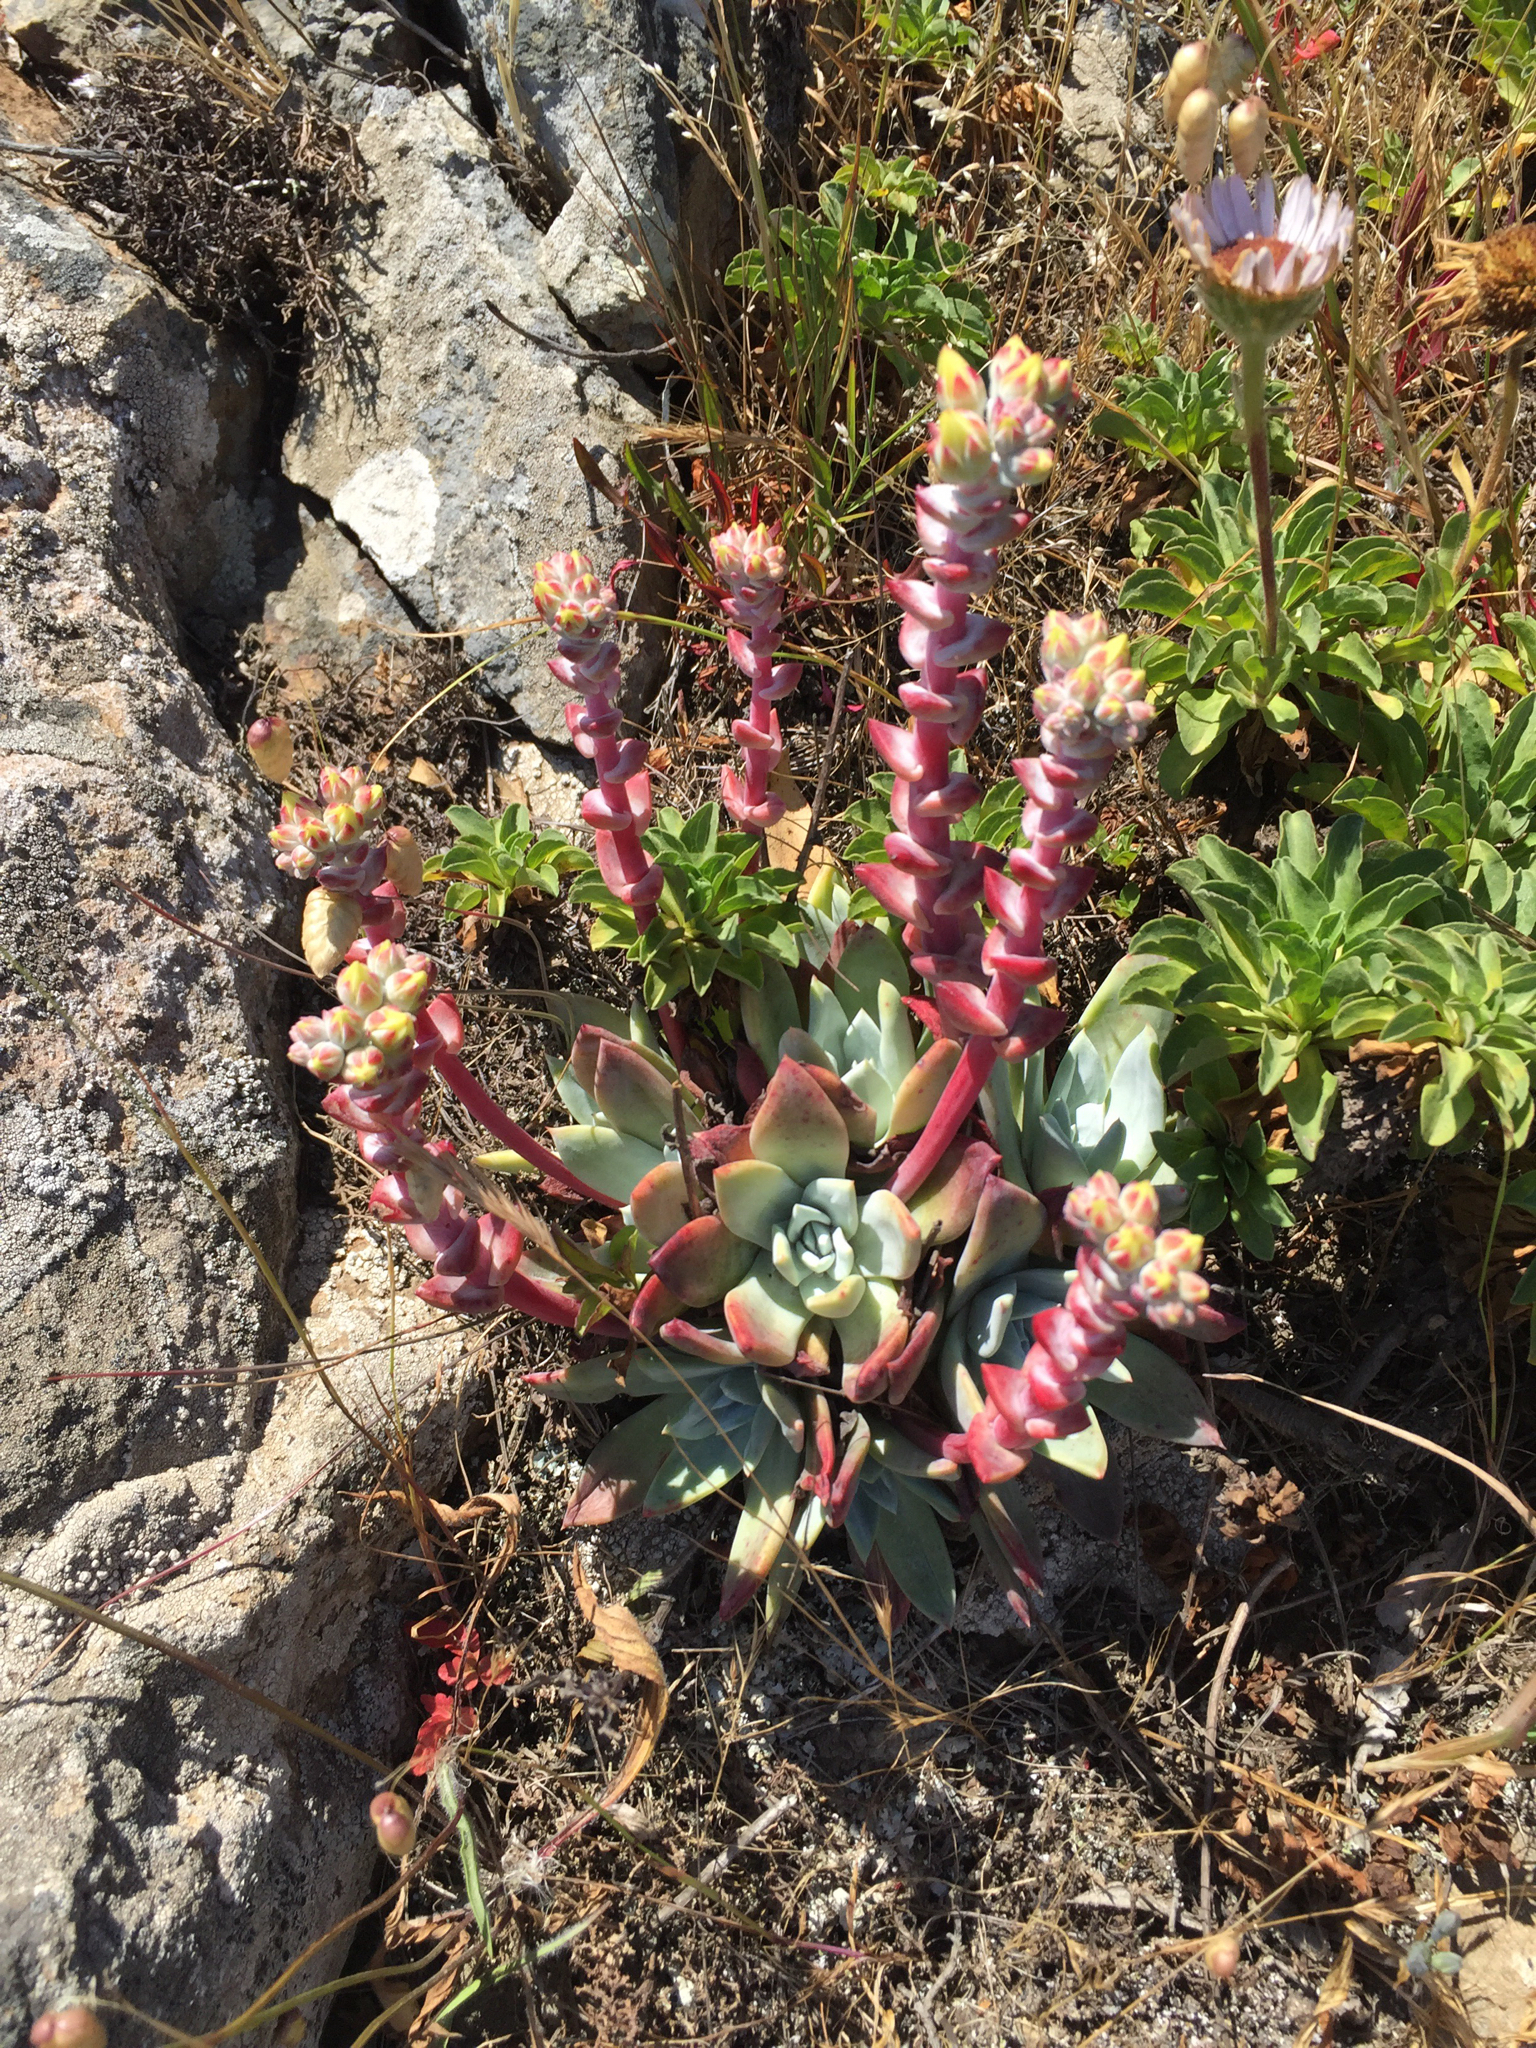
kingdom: Plantae
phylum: Tracheophyta
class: Magnoliopsida
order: Saxifragales
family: Crassulaceae
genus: Dudleya
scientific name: Dudleya farinosa
